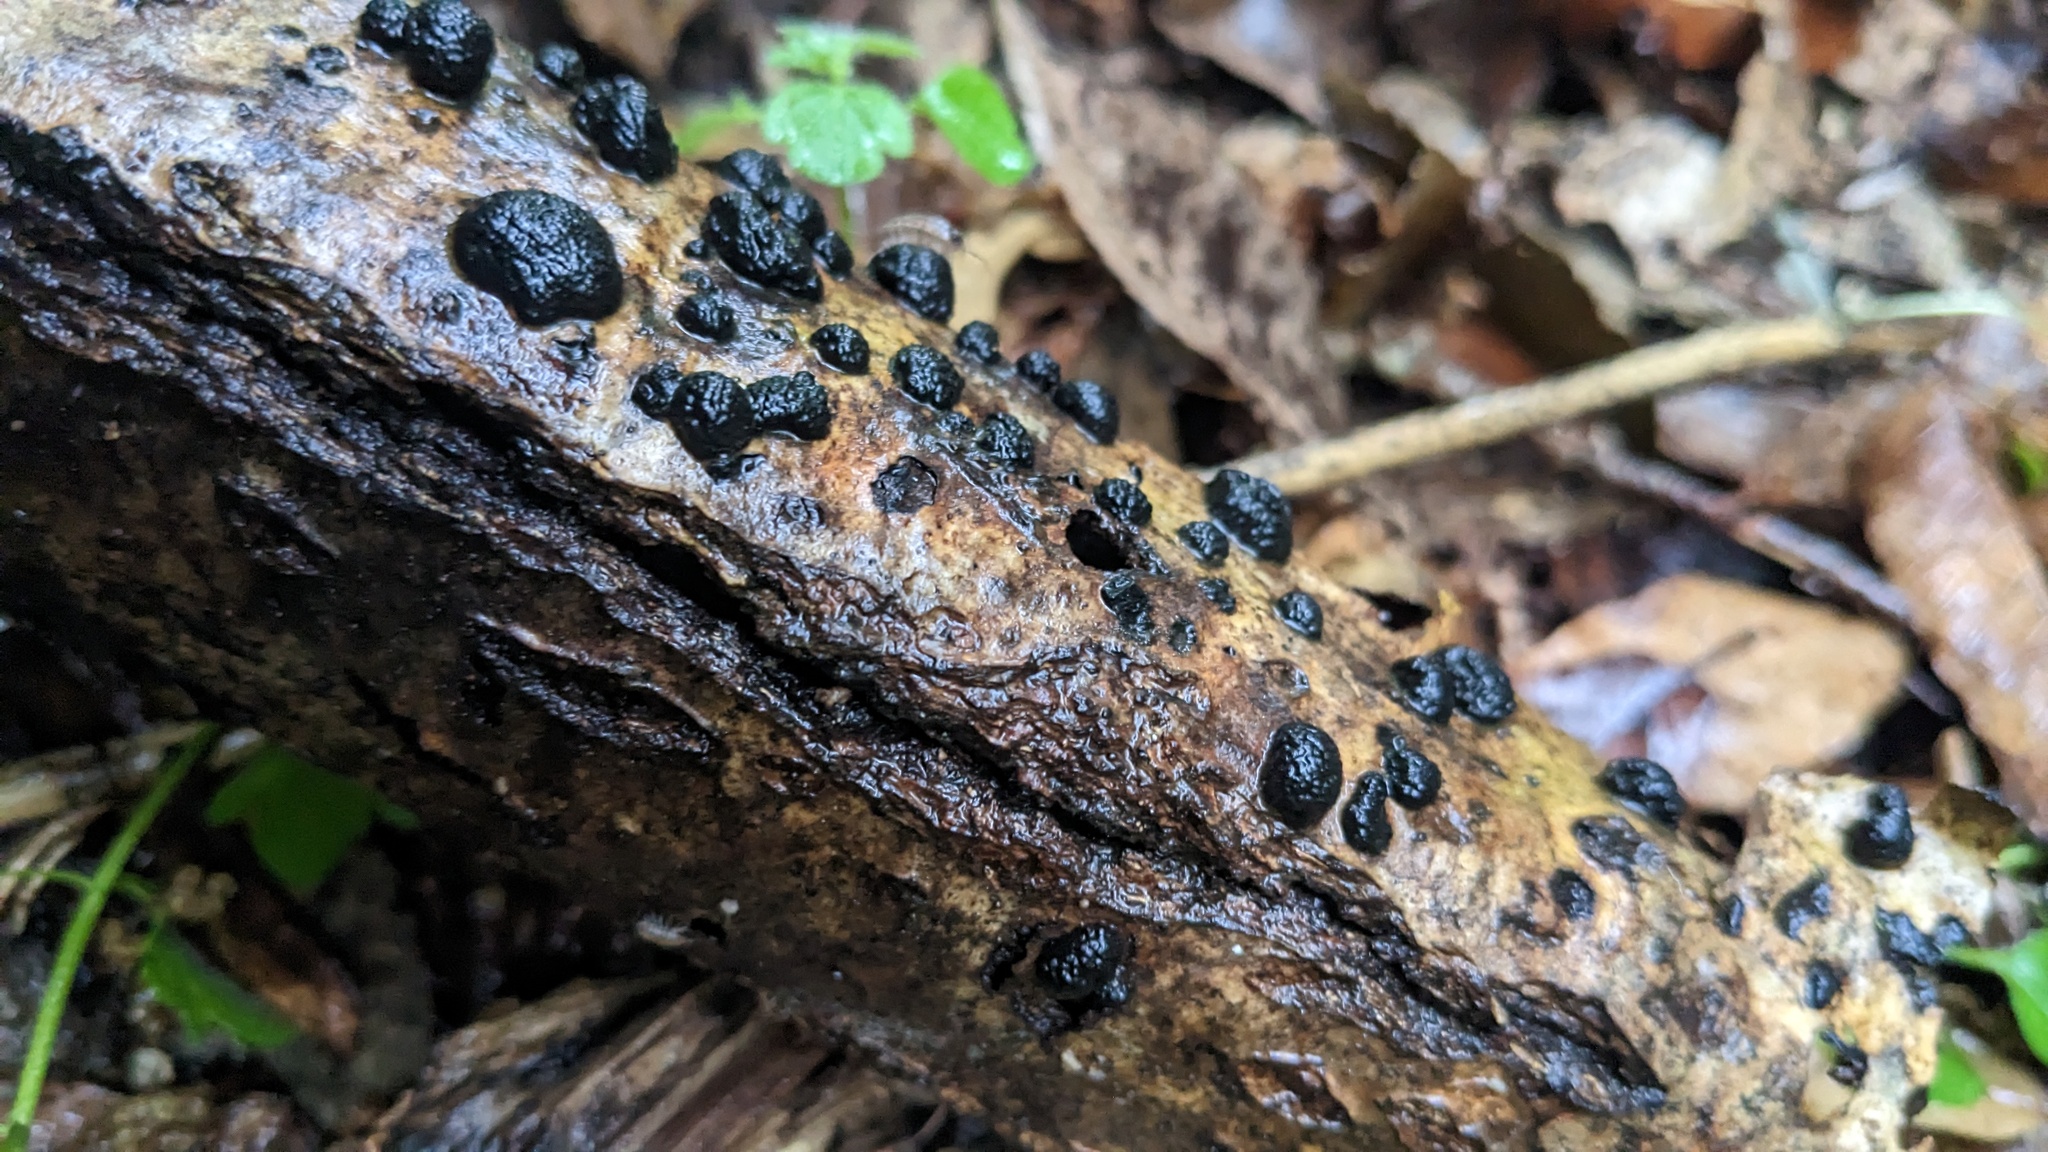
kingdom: Fungi
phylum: Ascomycota
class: Sordariomycetes
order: Xylariales
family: Hypoxylaceae
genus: Annulohypoxylon
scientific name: Annulohypoxylon truncatum
